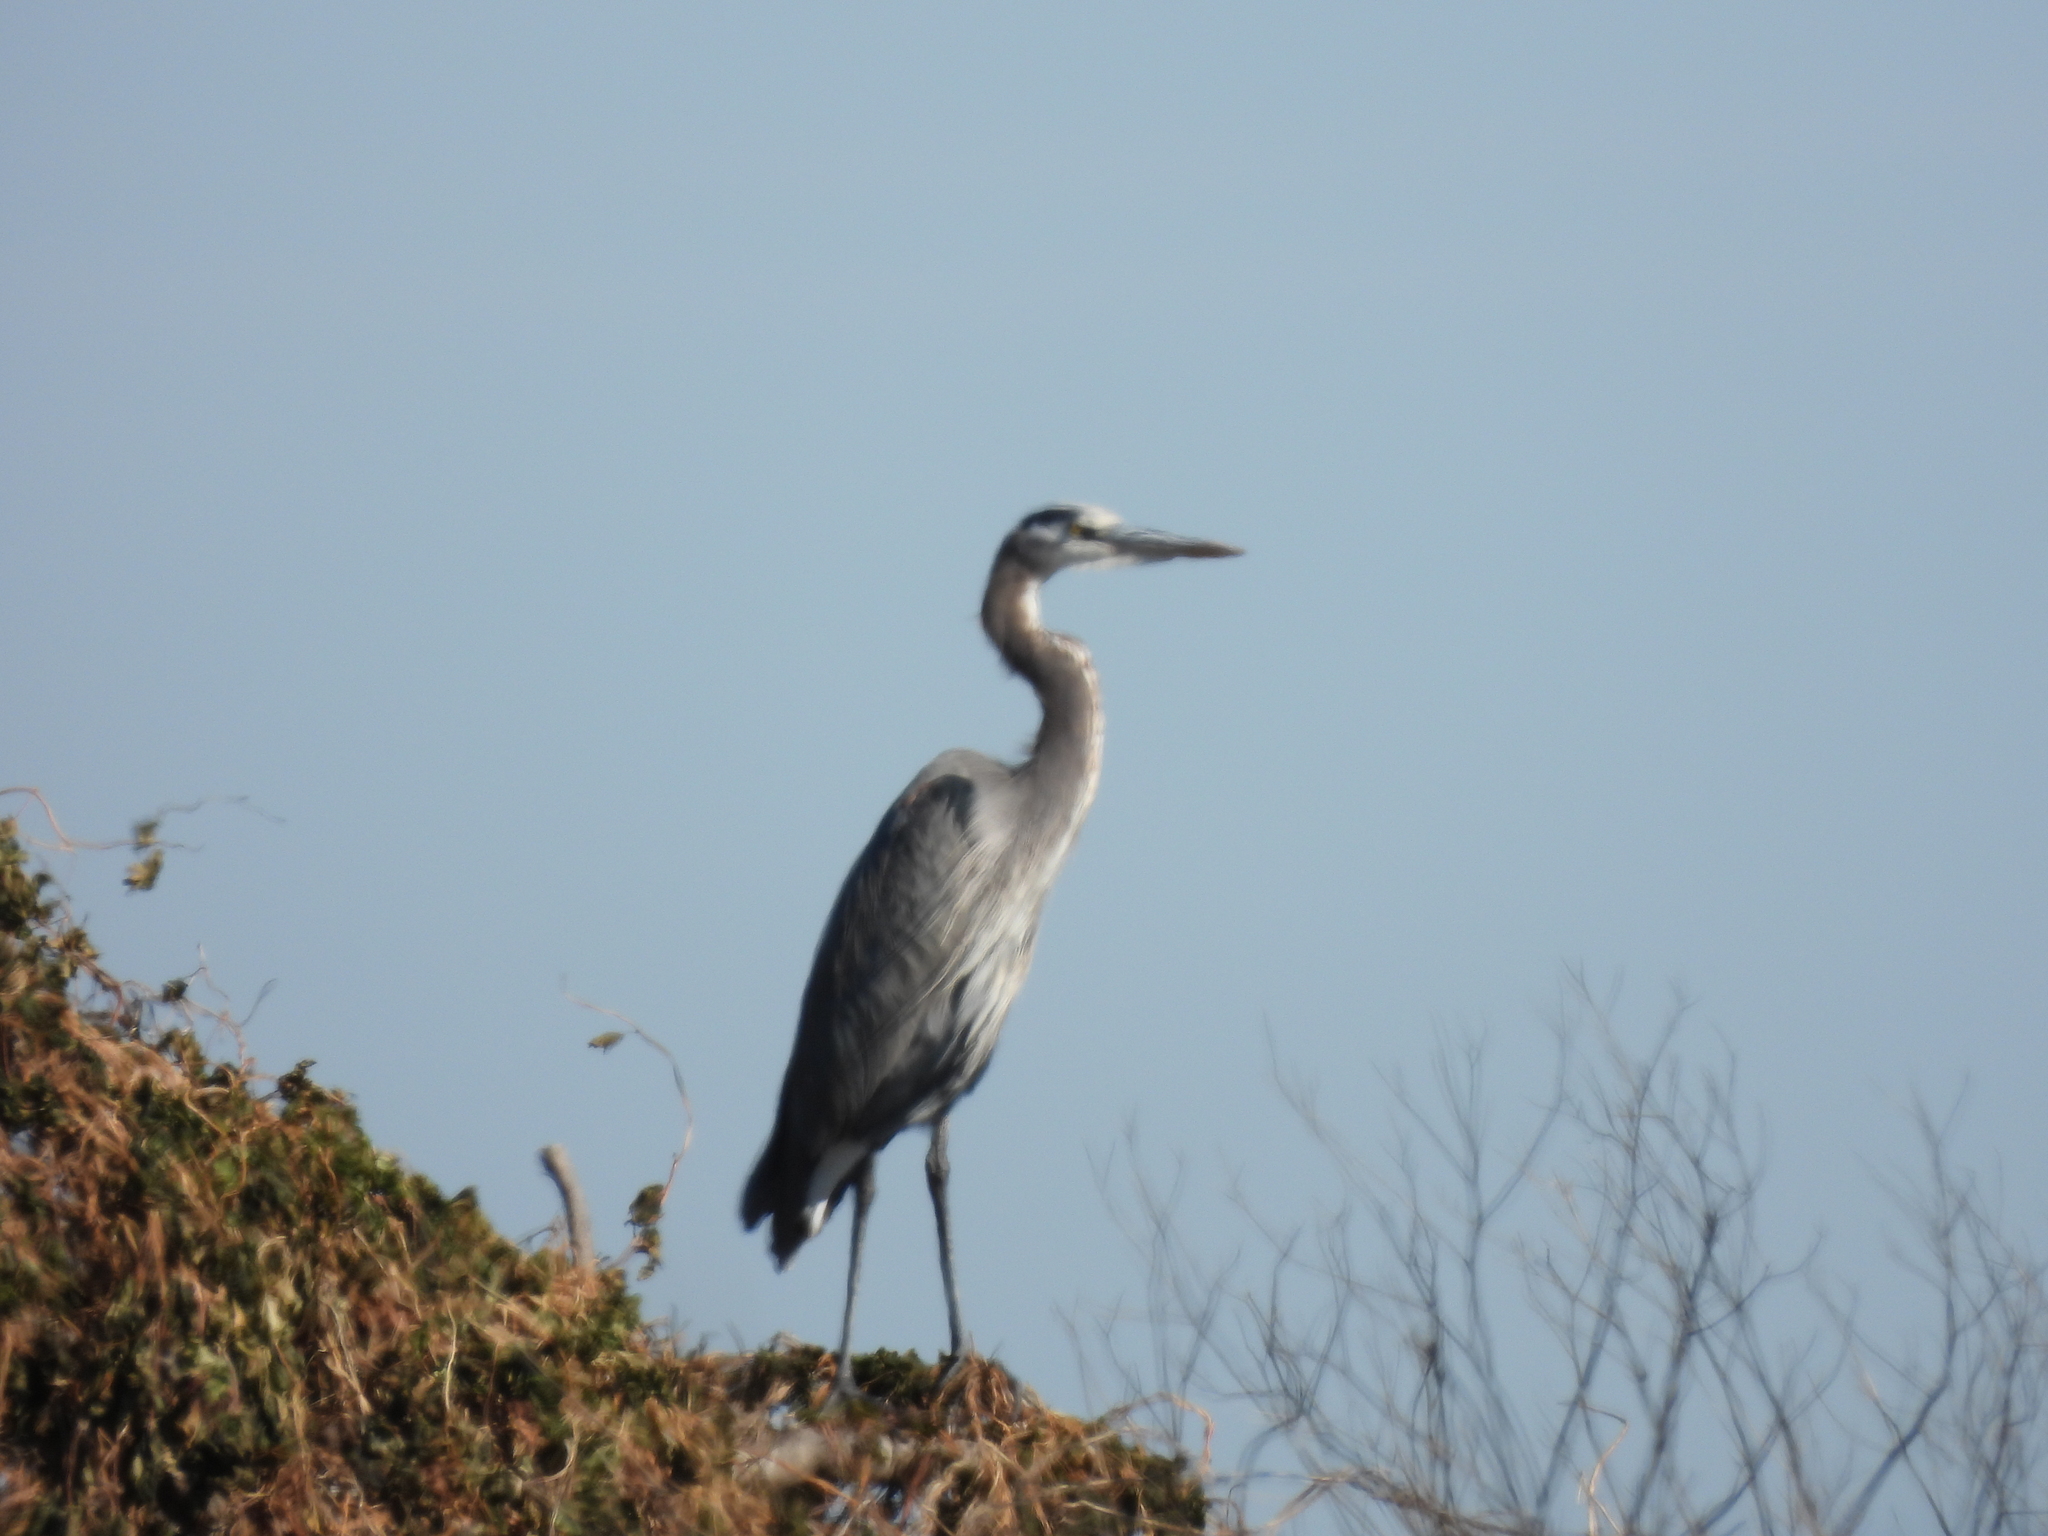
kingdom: Animalia
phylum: Chordata
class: Aves
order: Pelecaniformes
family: Ardeidae
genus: Ardea
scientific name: Ardea herodias
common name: Great blue heron
